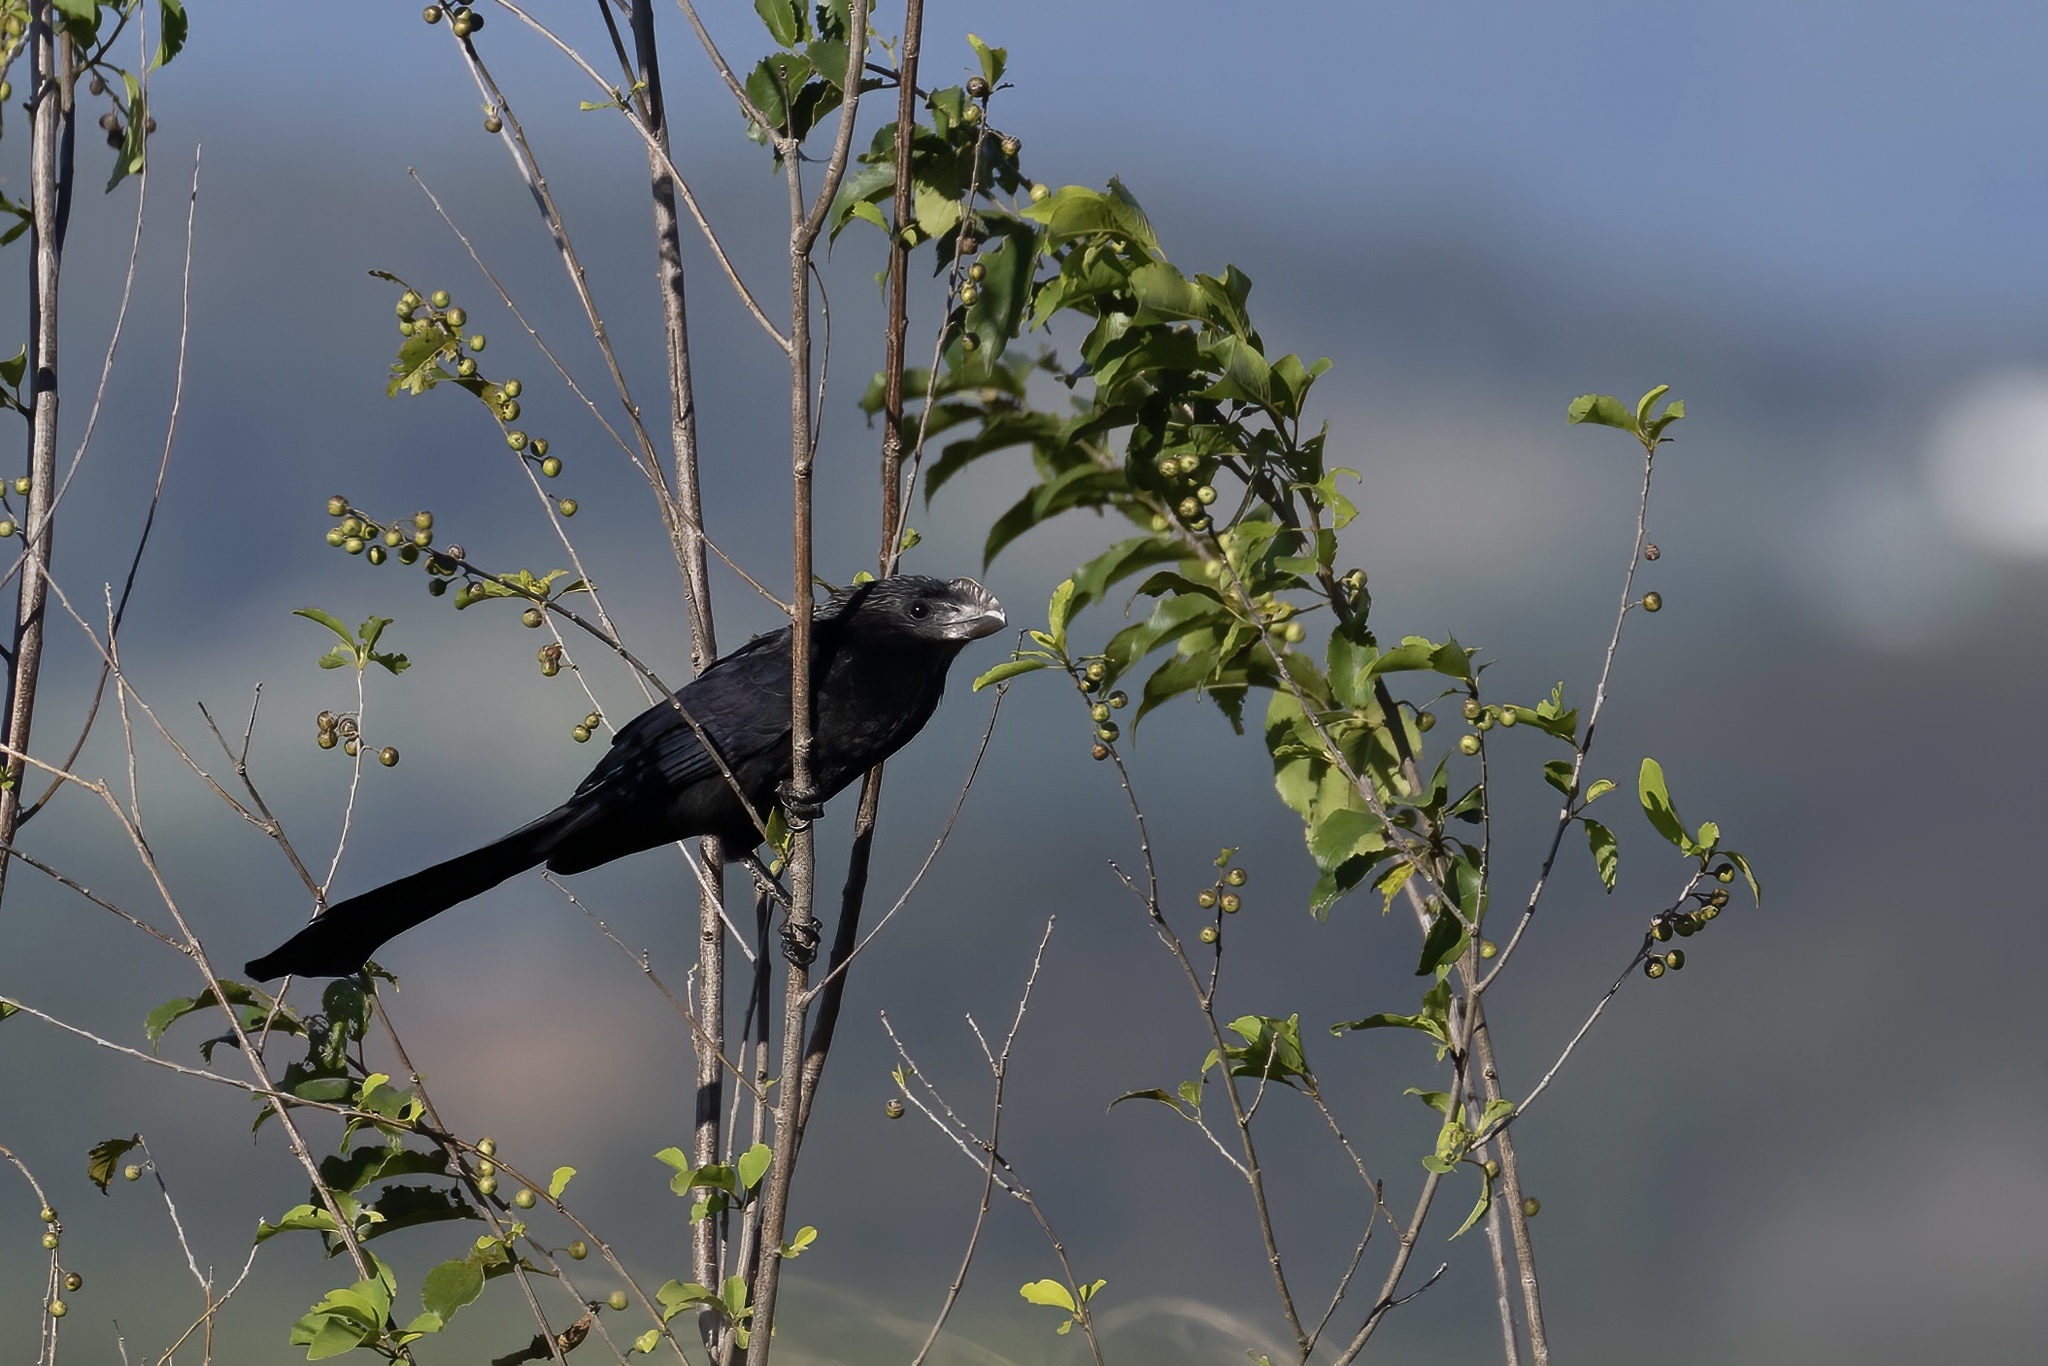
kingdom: Animalia
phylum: Chordata
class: Aves
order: Cuculiformes
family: Cuculidae
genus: Crotophaga
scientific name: Crotophaga ani
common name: Smooth-billed ani
